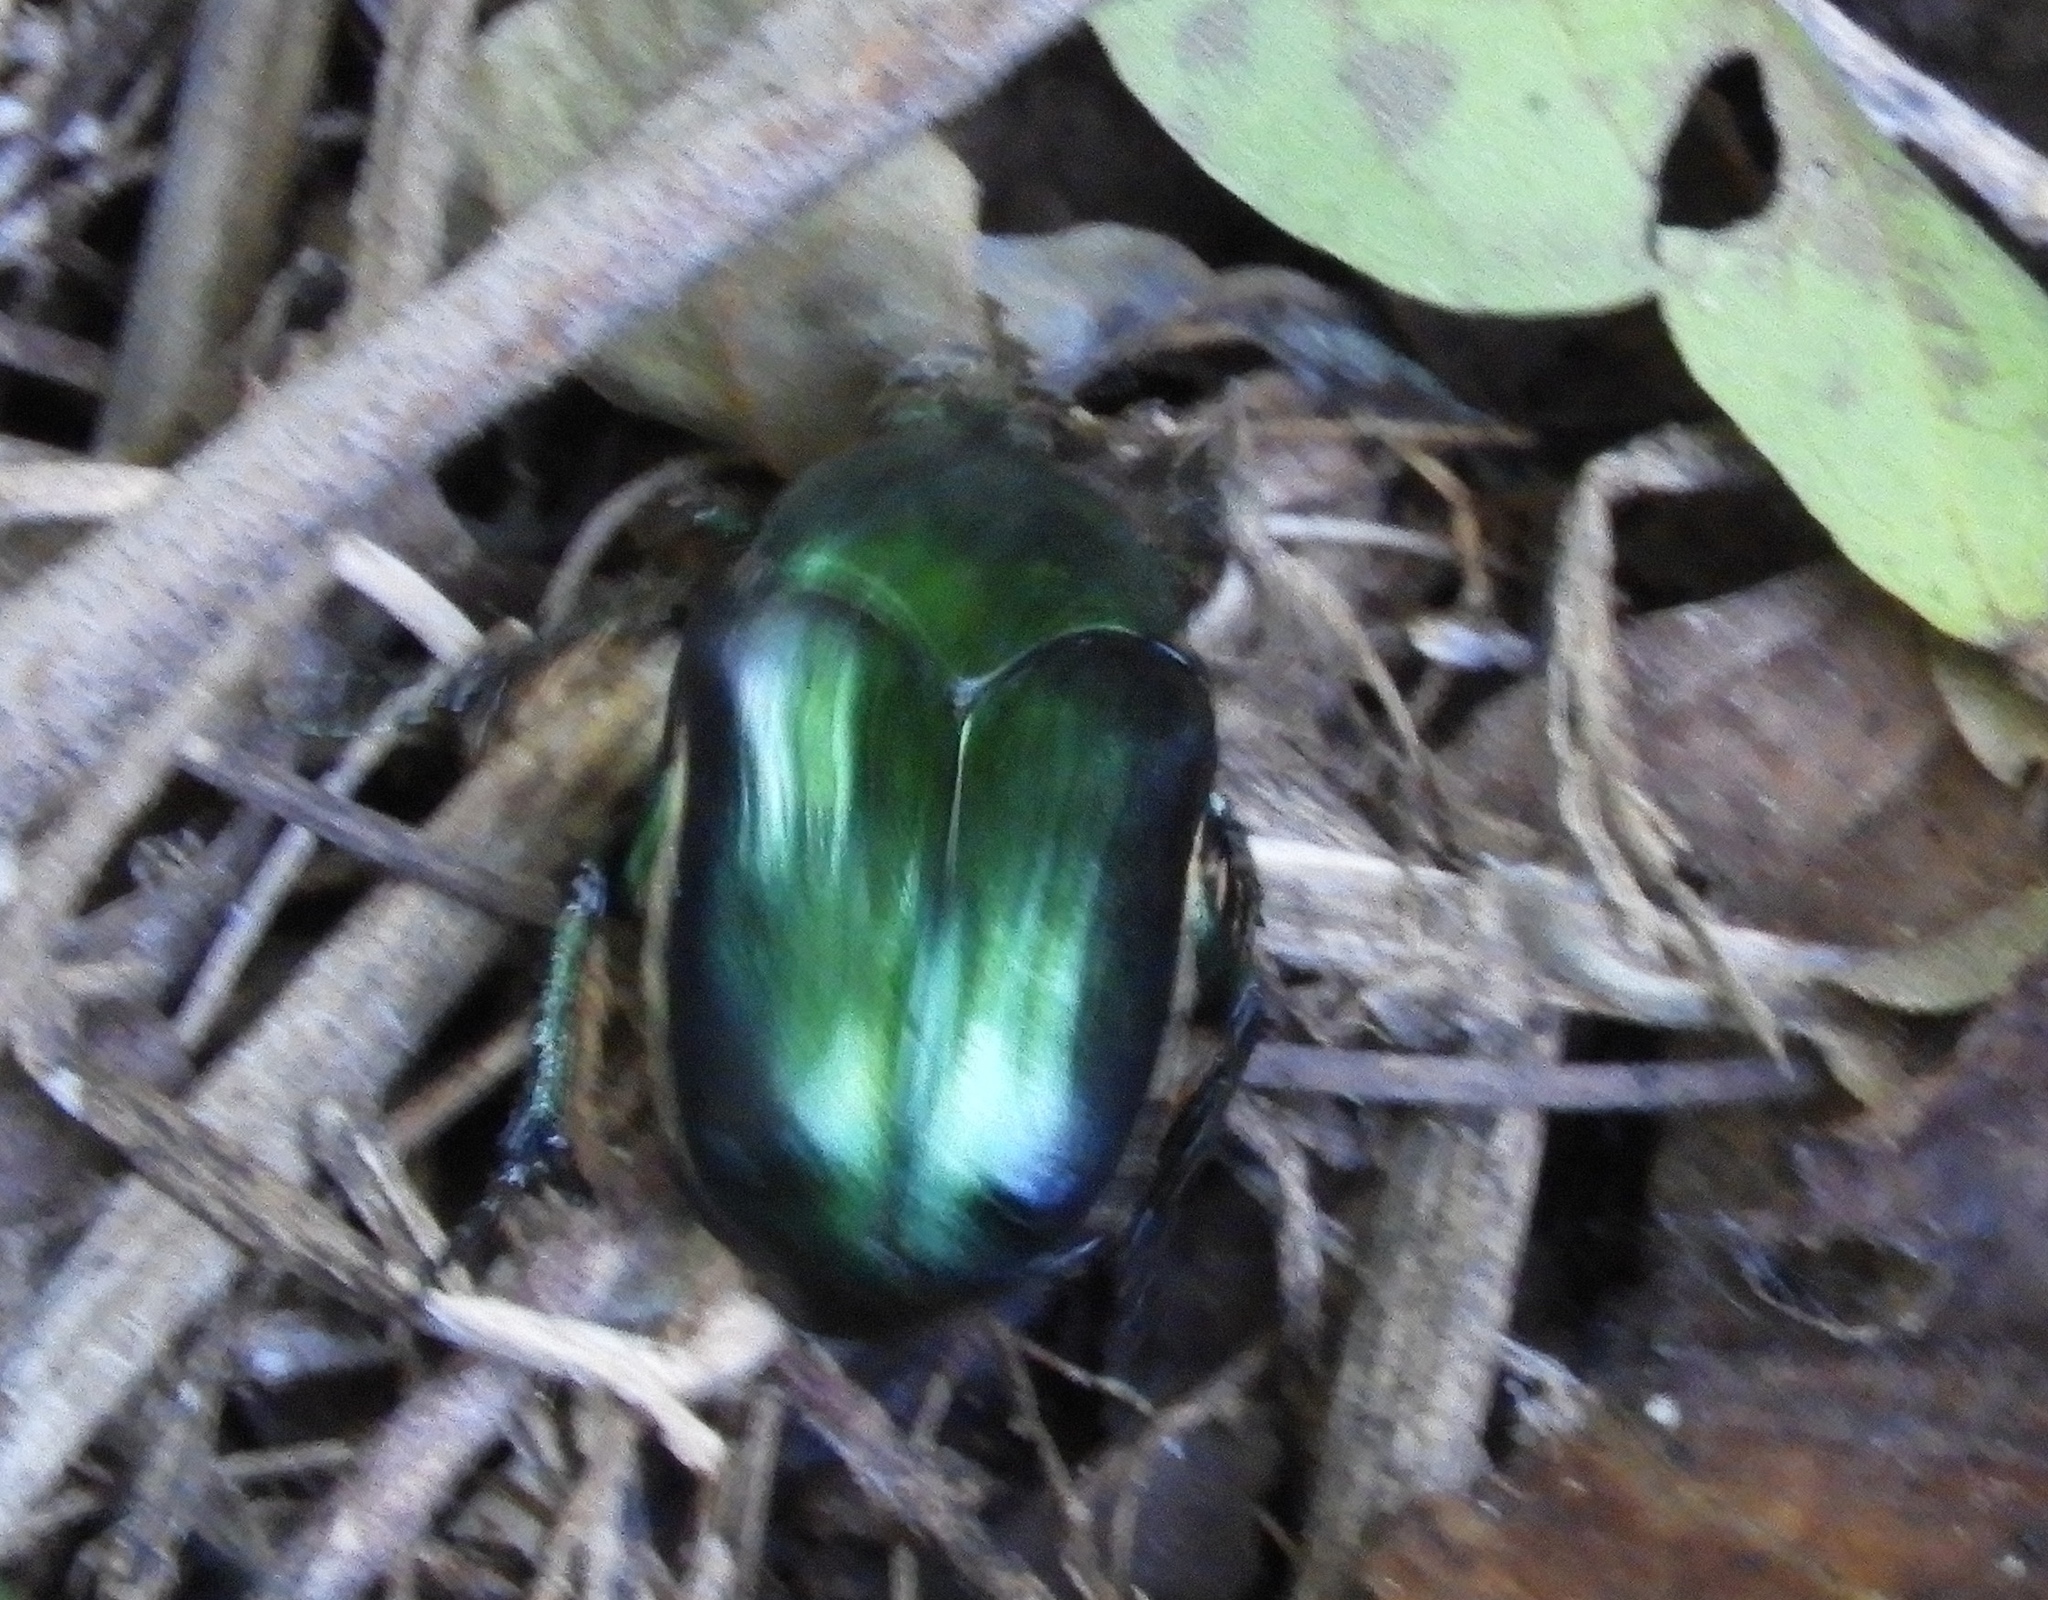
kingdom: Animalia
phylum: Arthropoda
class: Insecta
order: Coleoptera
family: Scarabaeidae
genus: Cotinis
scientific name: Cotinis
